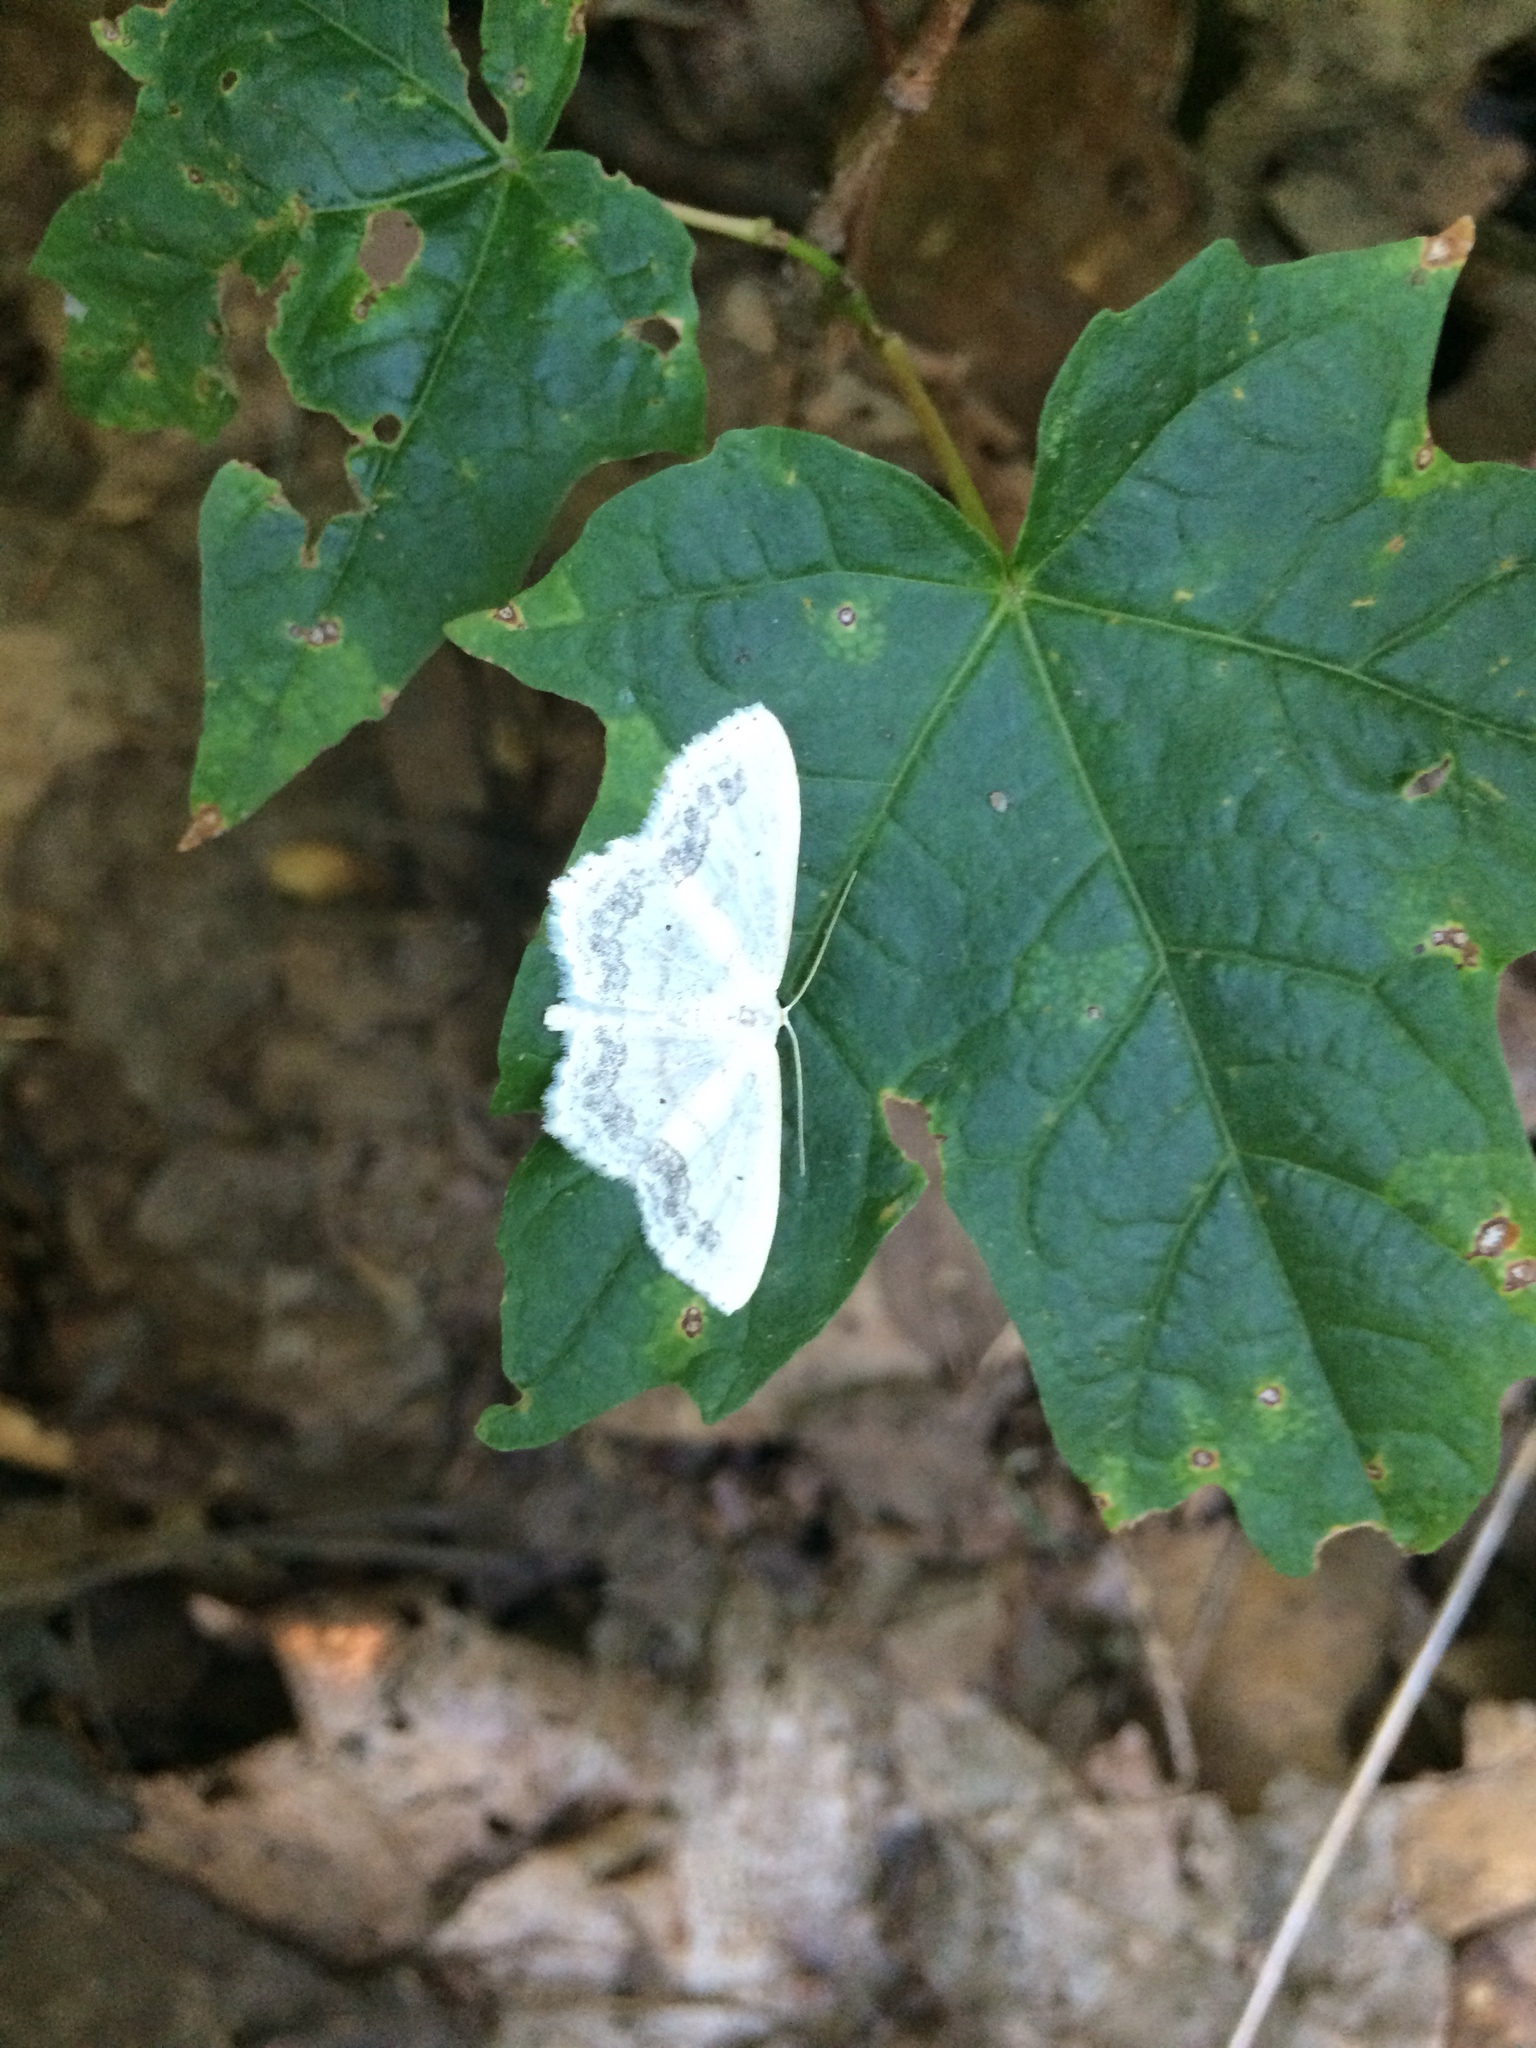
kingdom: Animalia
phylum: Arthropoda
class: Insecta
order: Lepidoptera
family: Geometridae
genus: Scopula
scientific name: Scopula limboundata
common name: Large lace border
